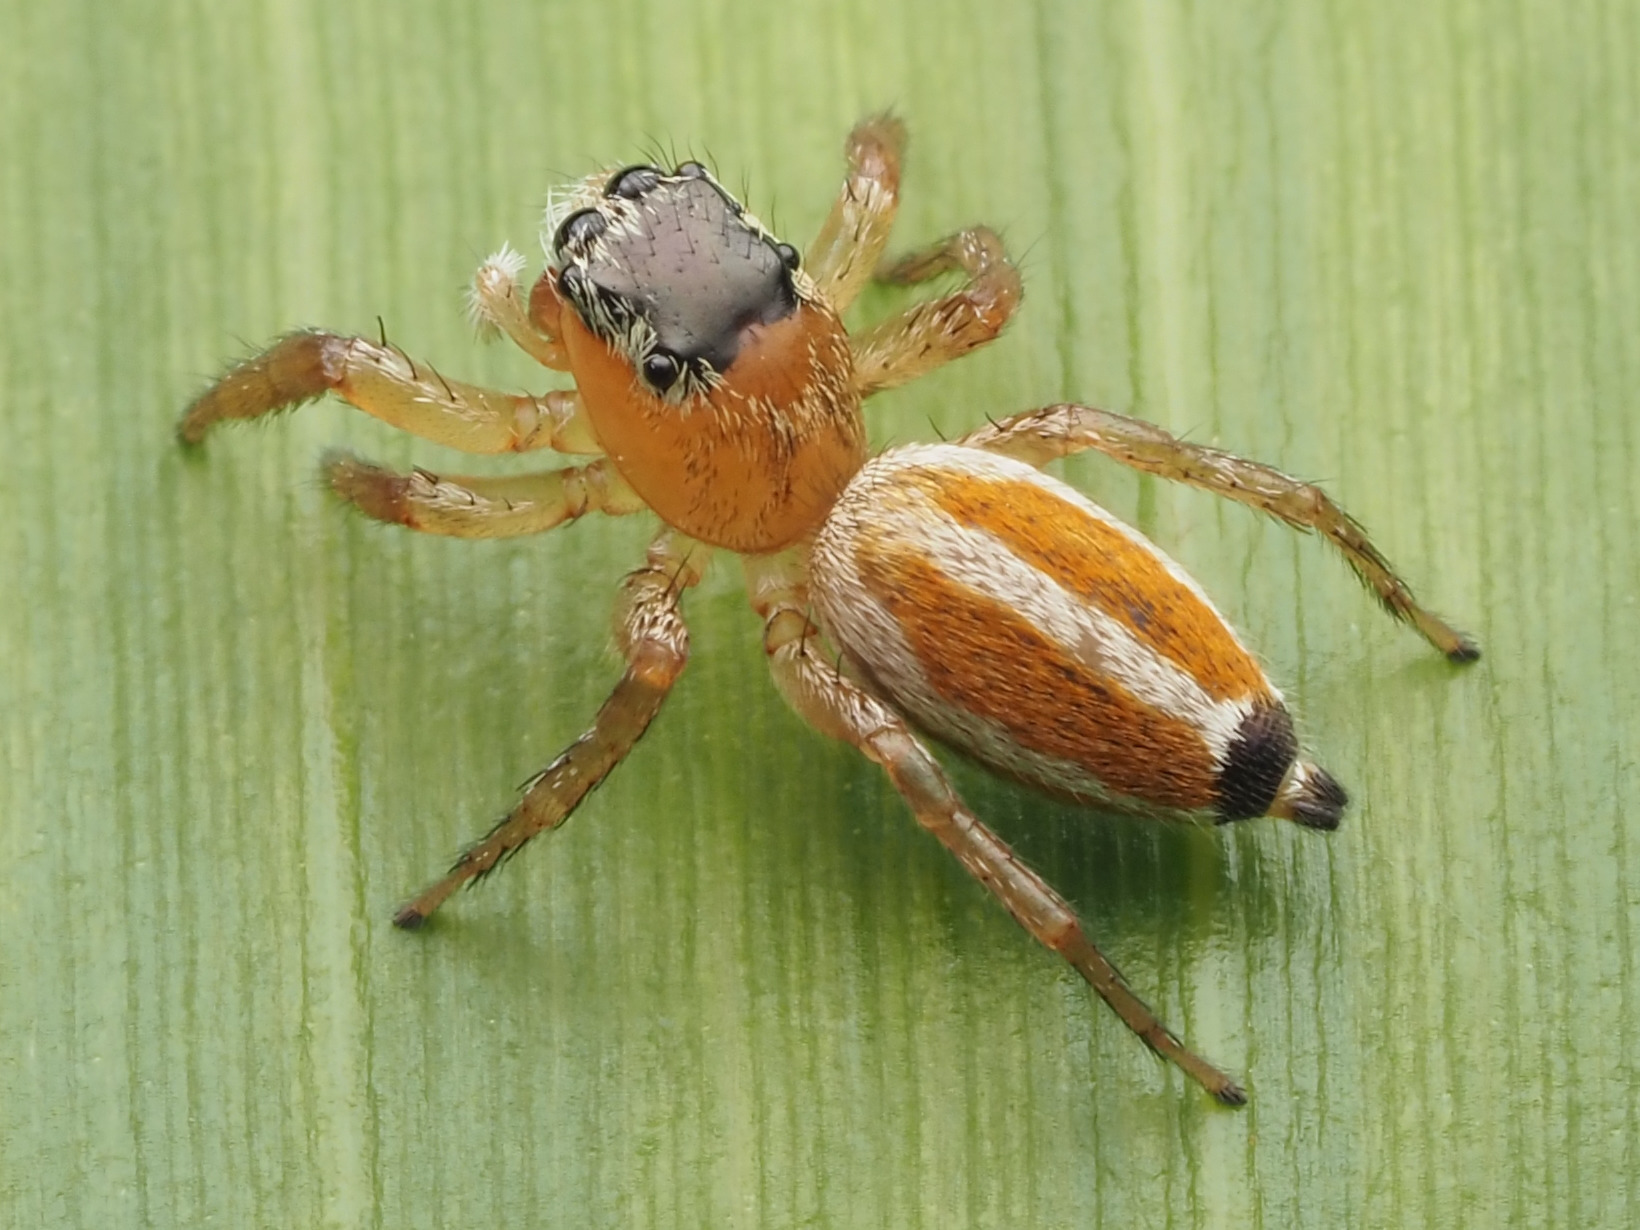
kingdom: Animalia
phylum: Arthropoda
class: Arachnida
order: Araneae
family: Salticidae
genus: Pachomius
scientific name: Pachomius bilobatus
